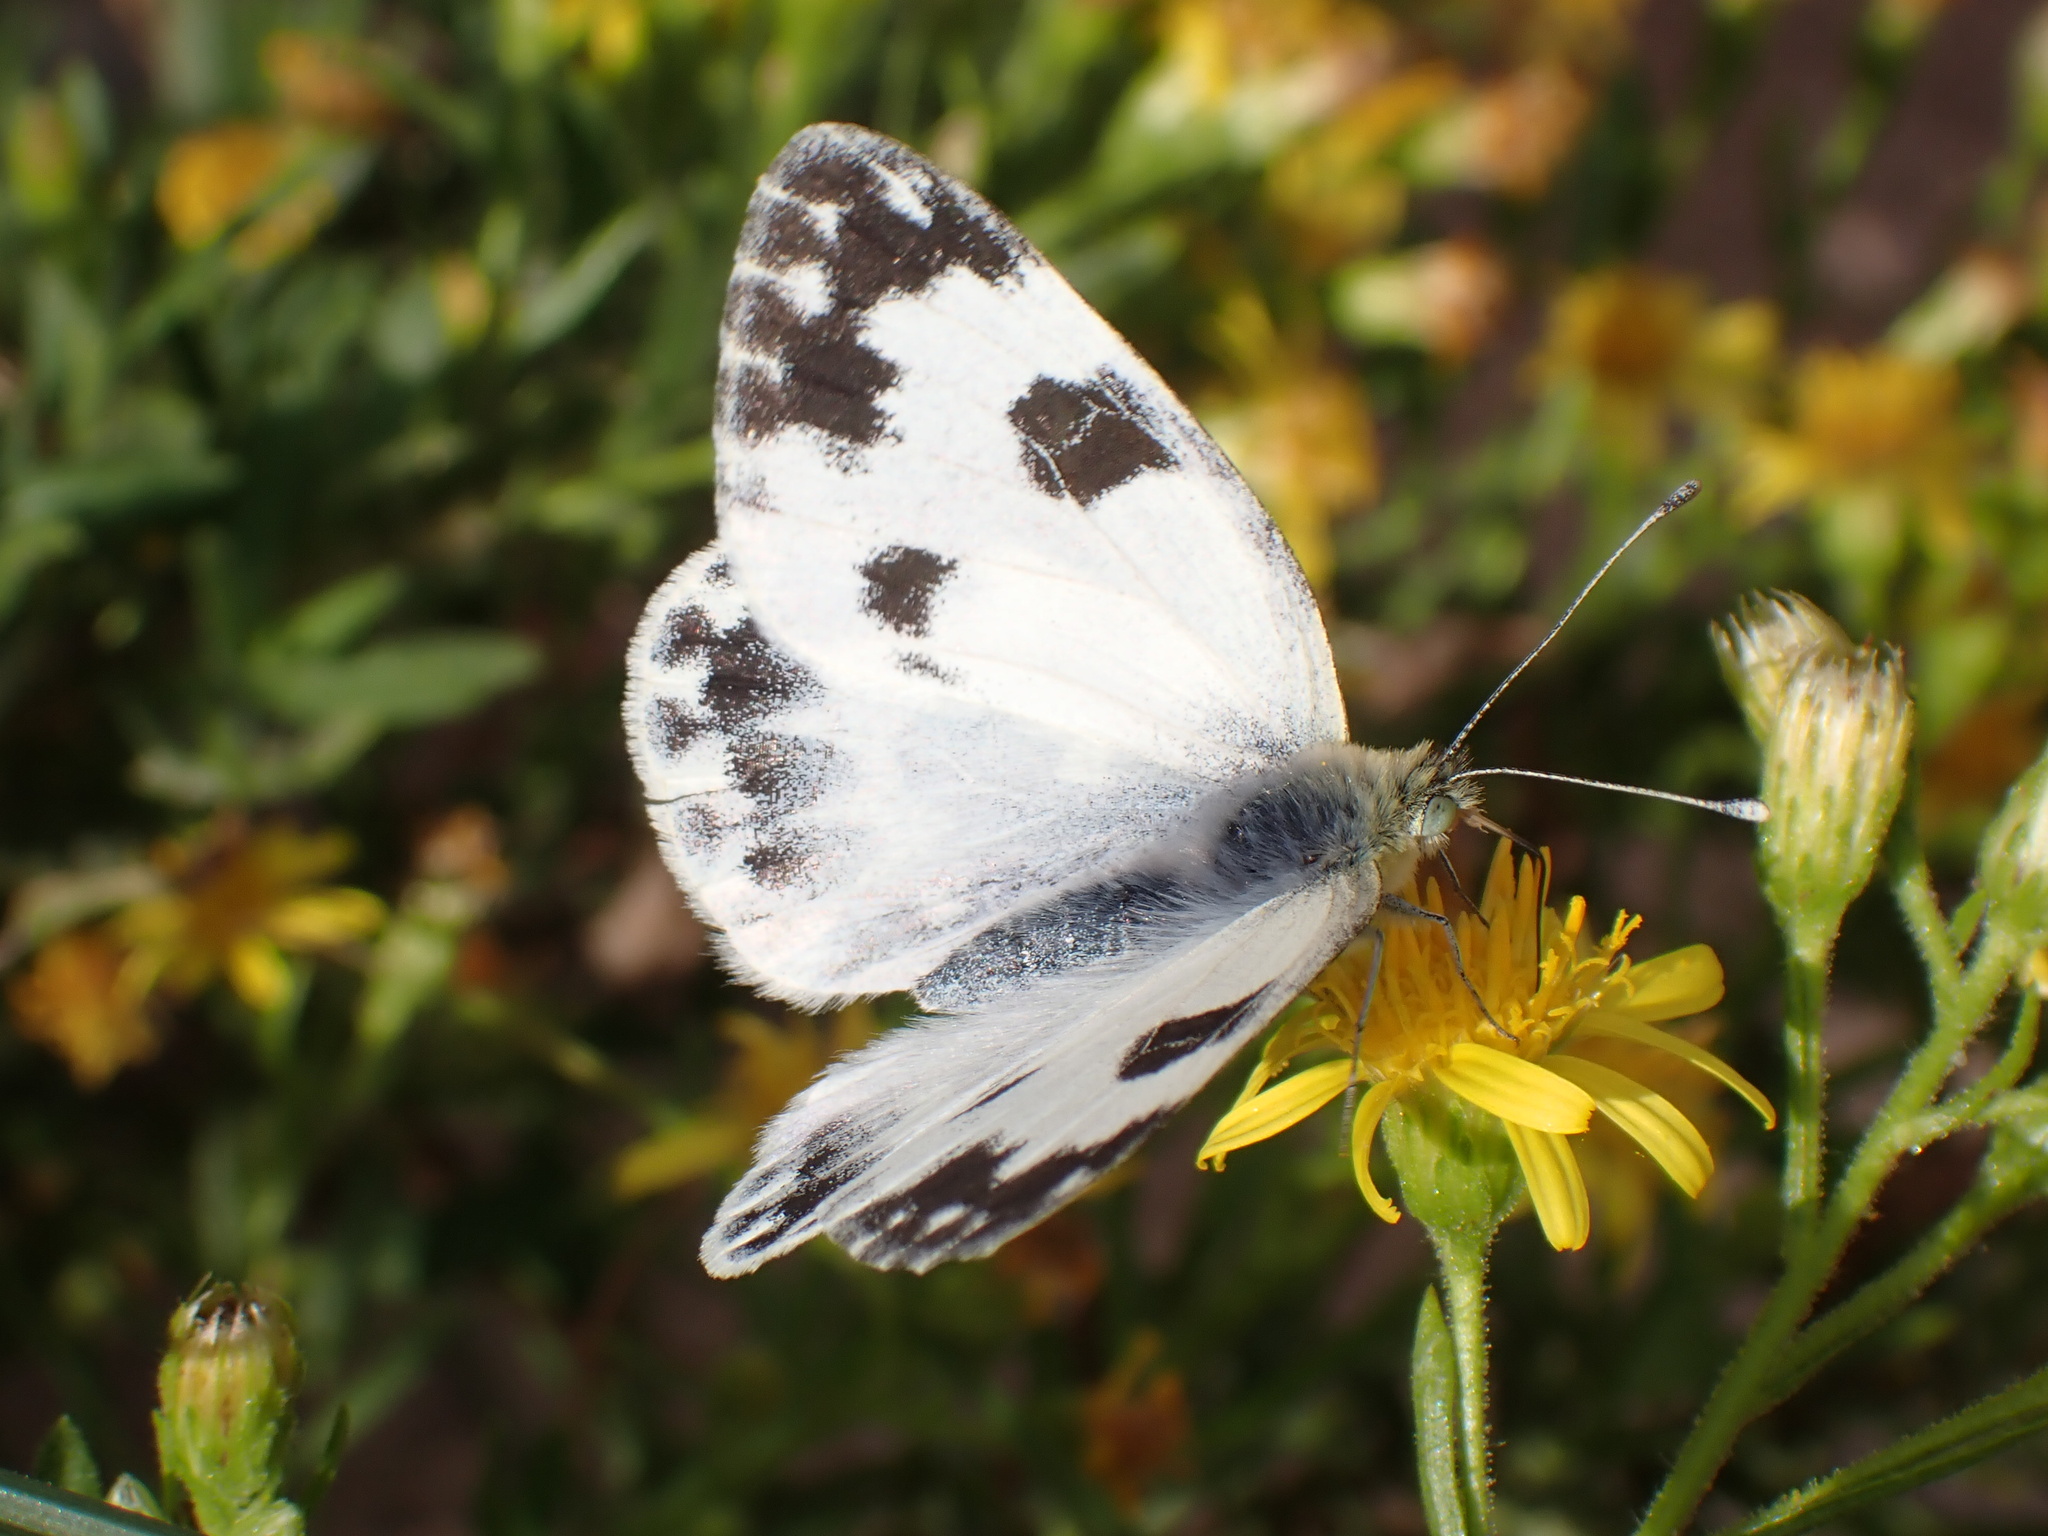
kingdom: Animalia
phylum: Arthropoda
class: Insecta
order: Lepidoptera
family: Pieridae
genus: Pontia
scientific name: Pontia daplidice
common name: Bath white
